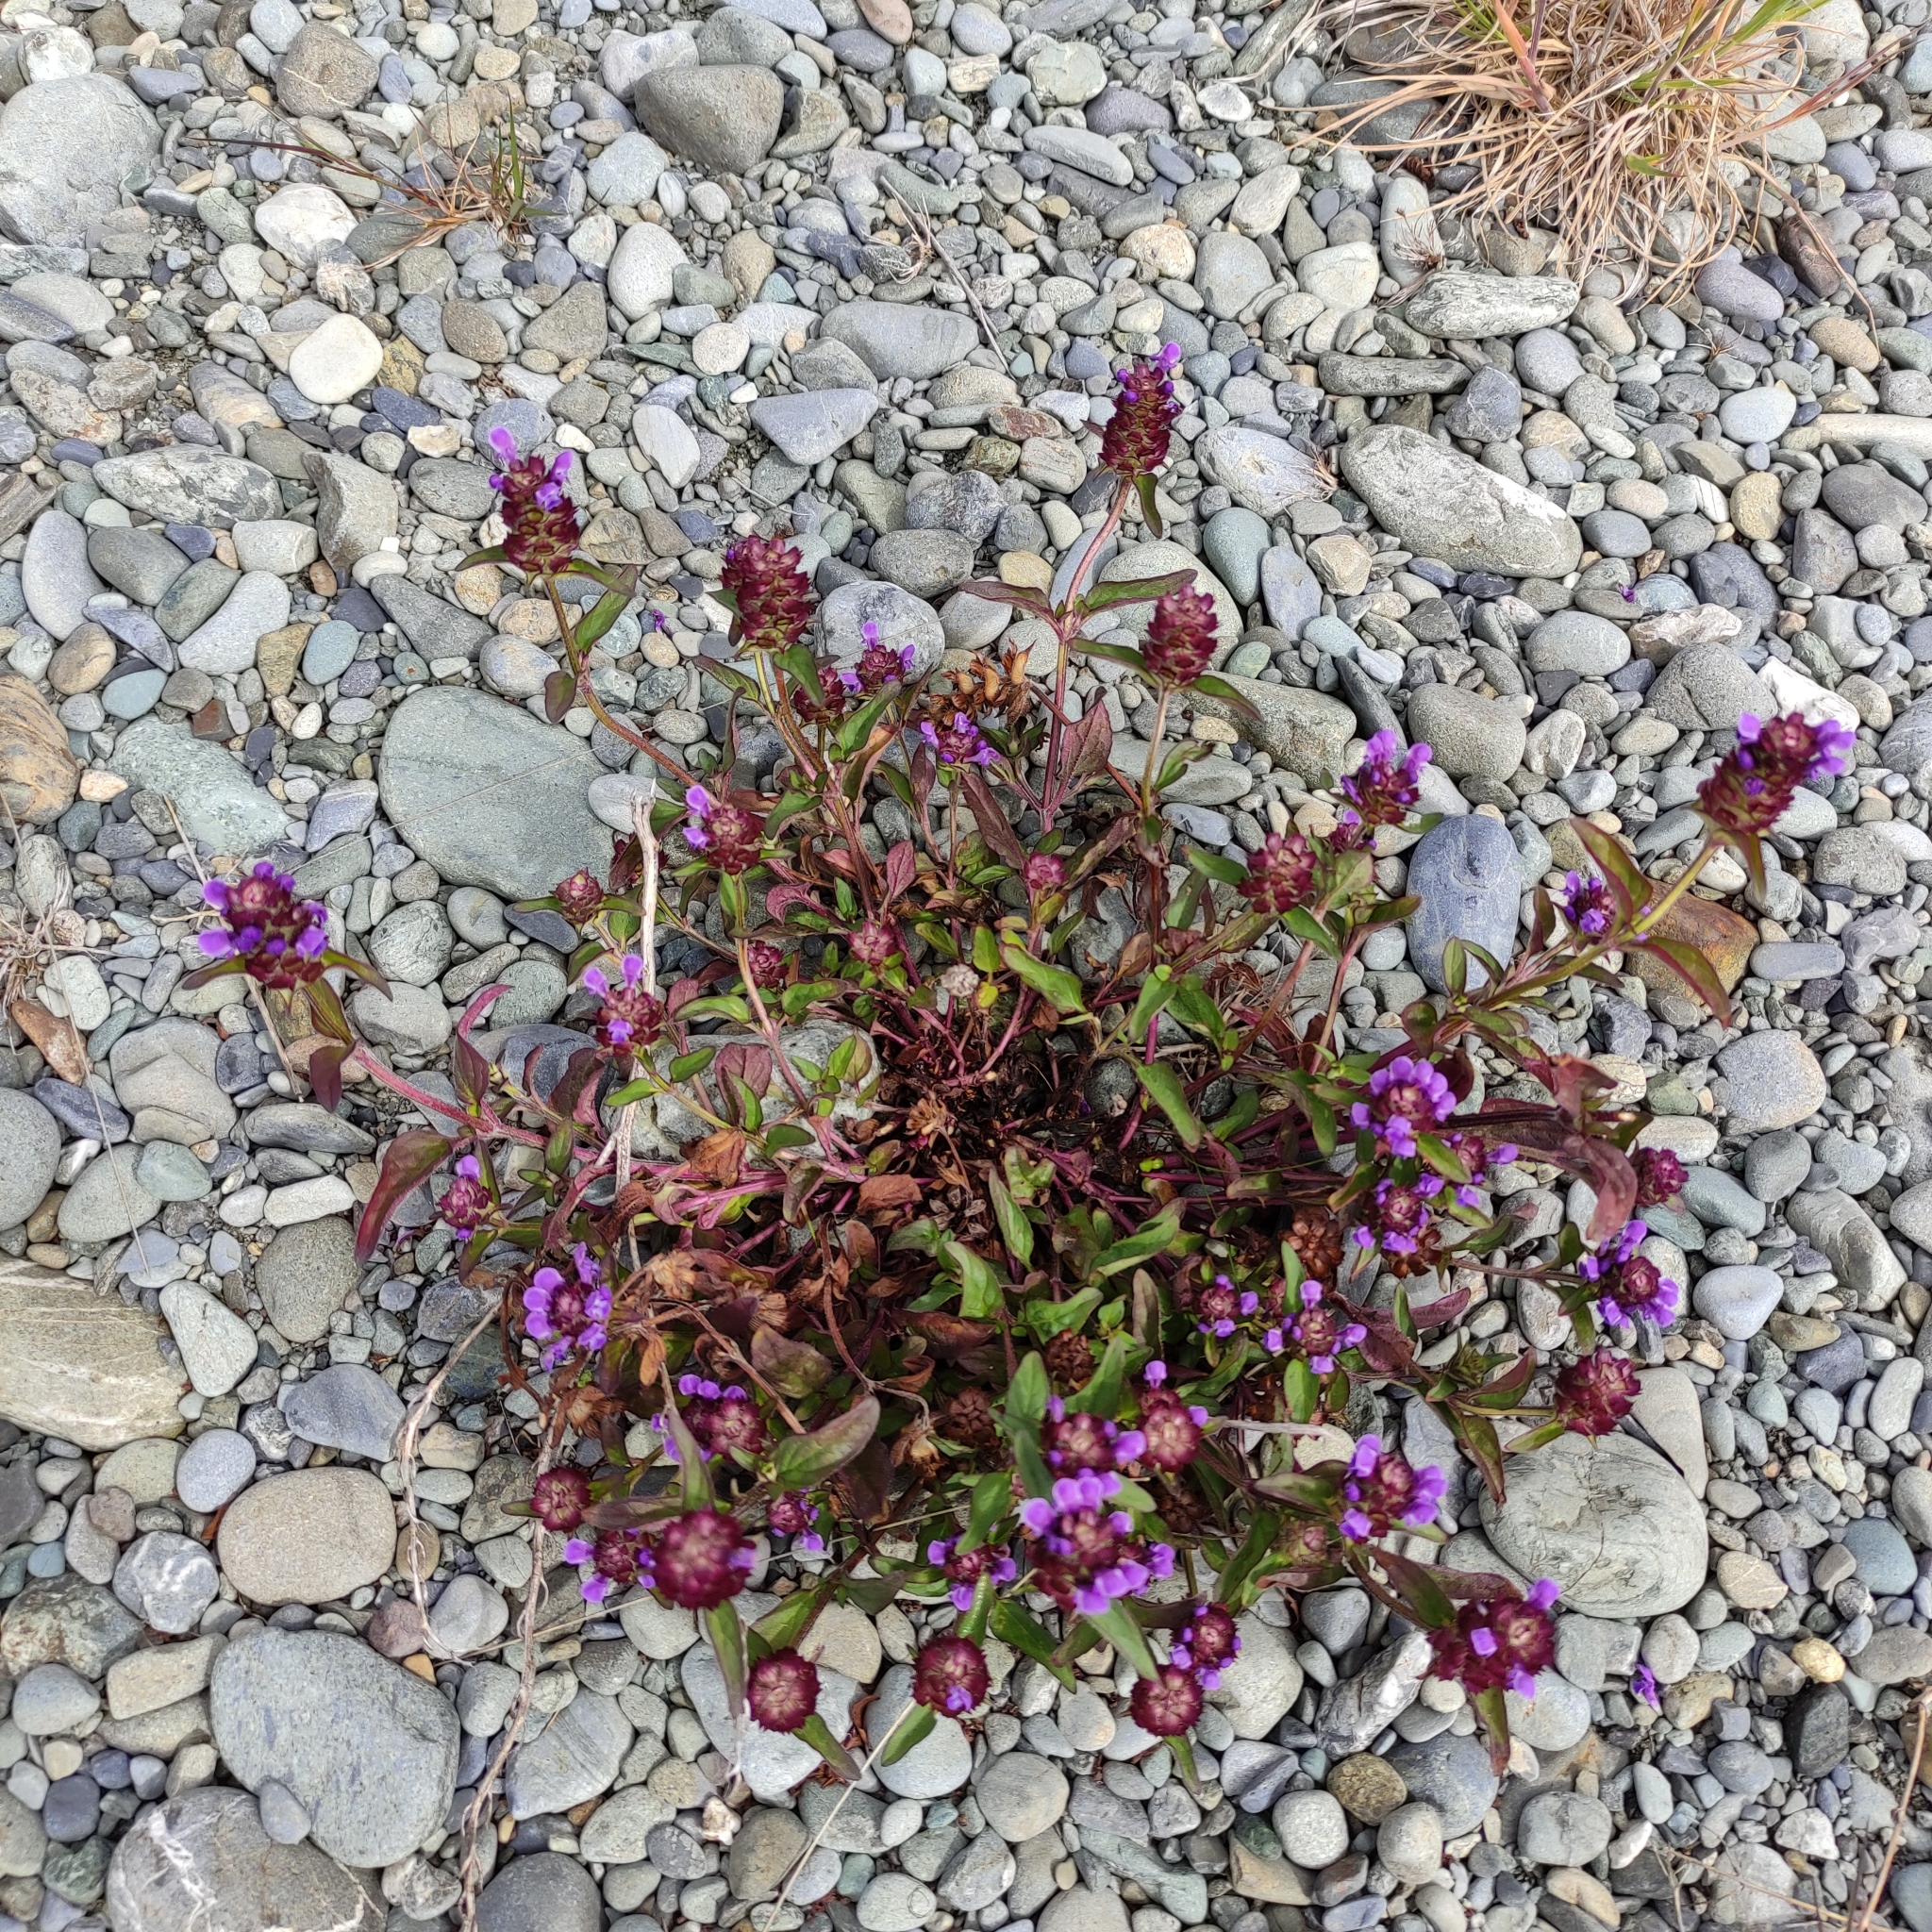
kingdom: Plantae
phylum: Tracheophyta
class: Magnoliopsida
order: Lamiales
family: Lamiaceae
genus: Prunella
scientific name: Prunella vulgaris
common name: Heal-all
